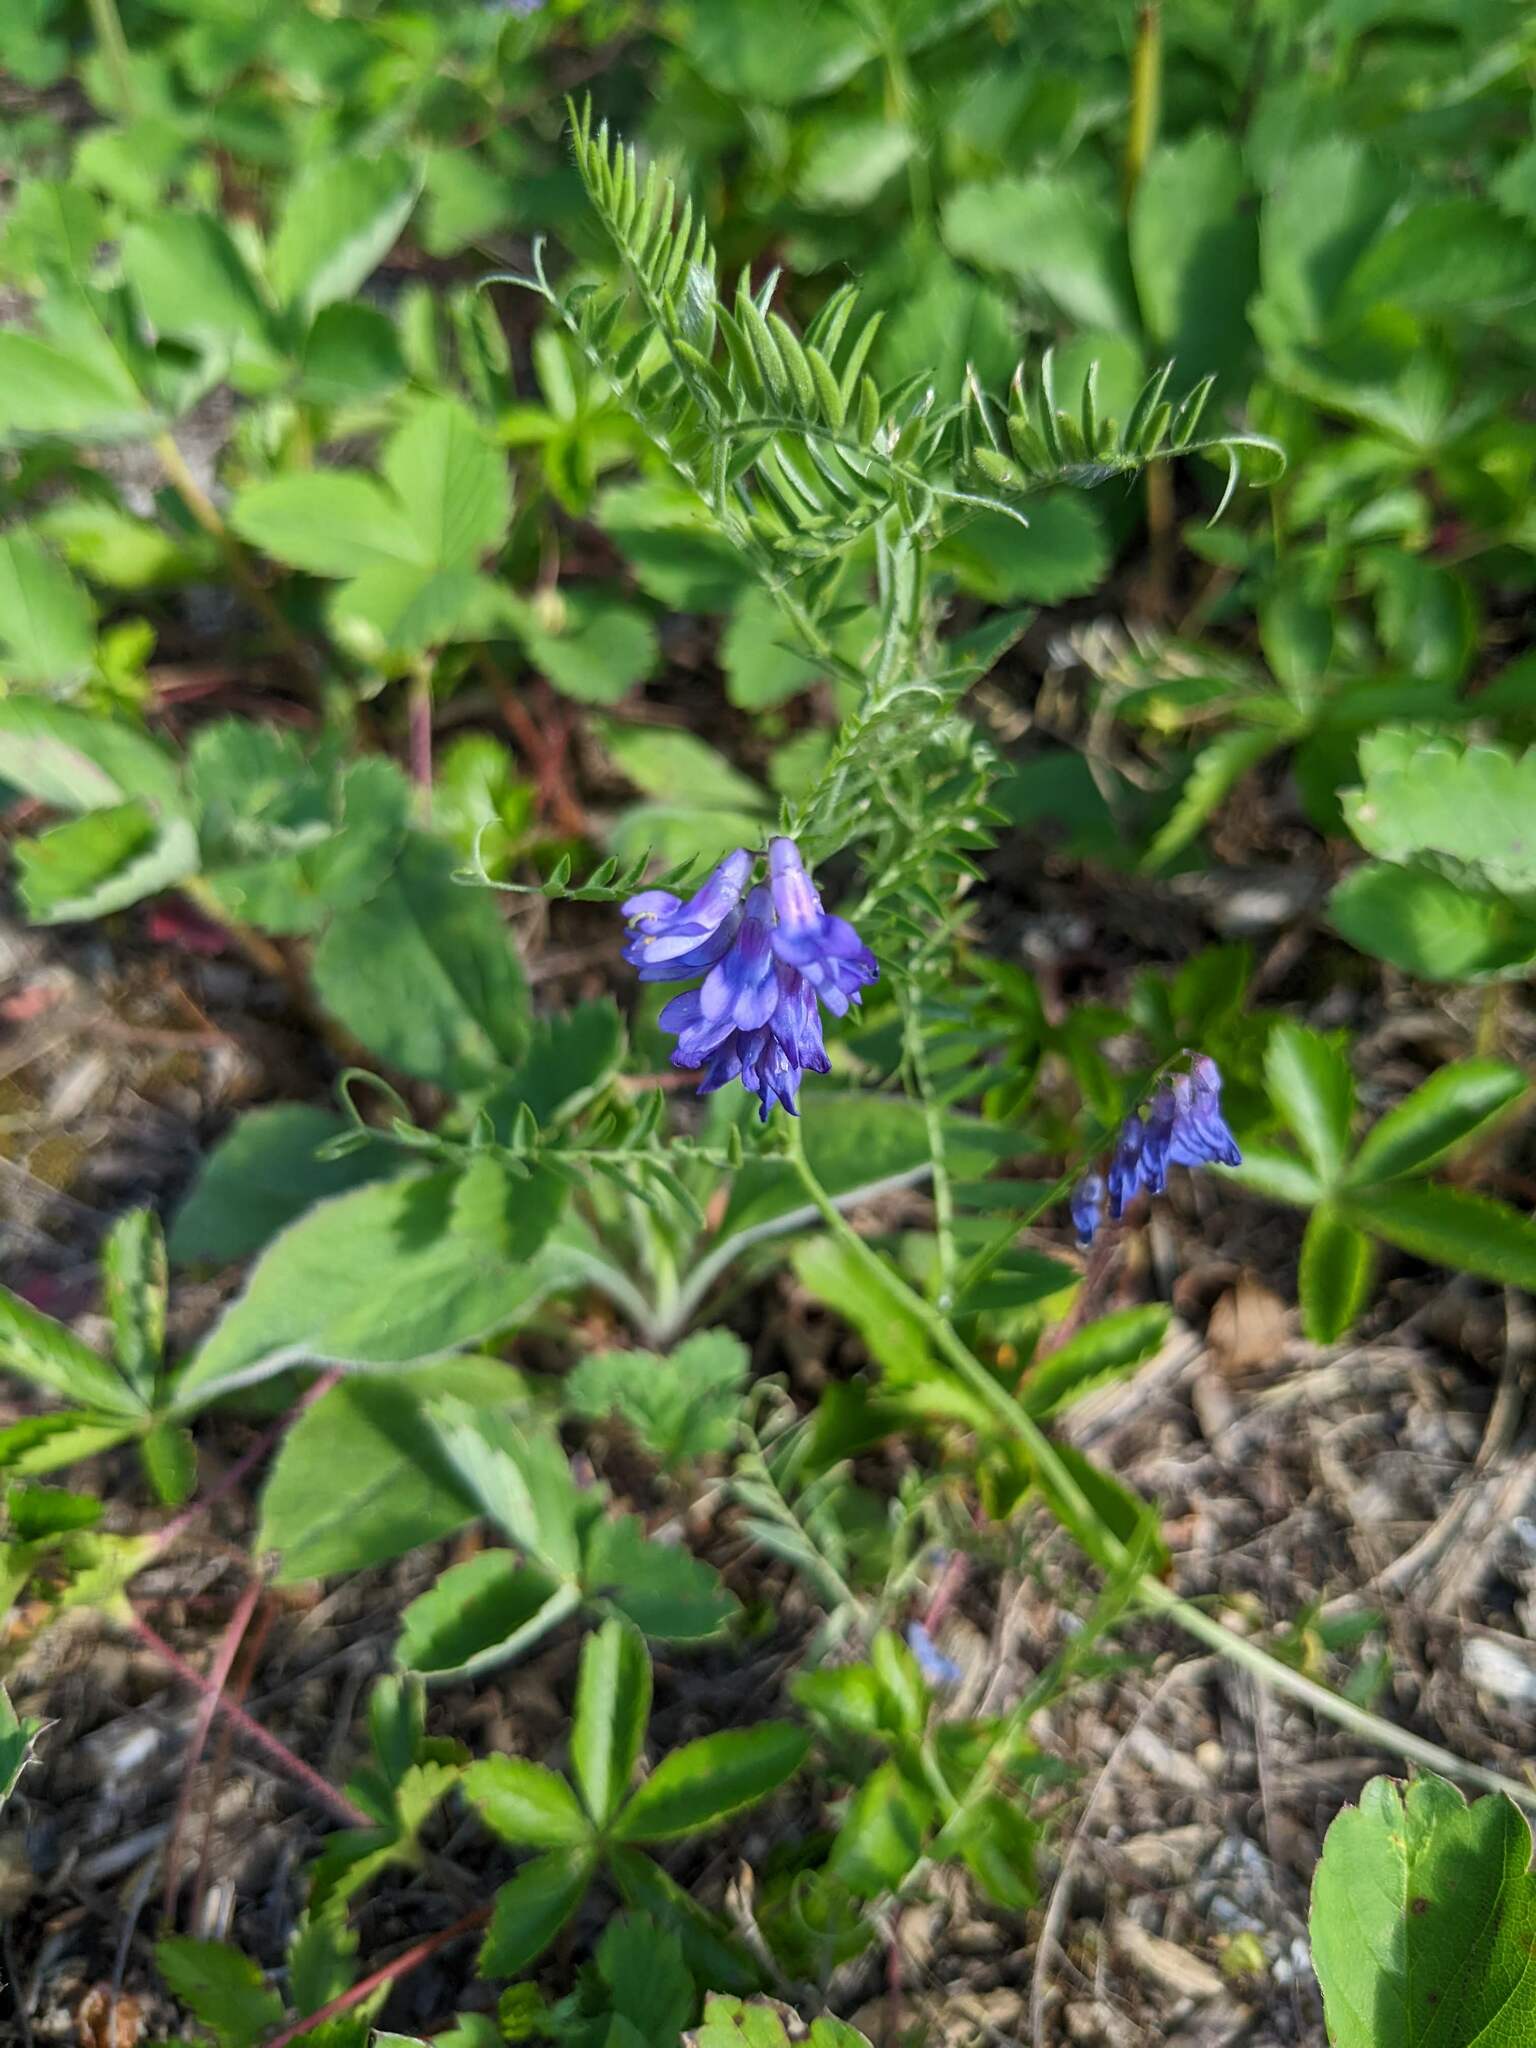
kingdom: Plantae
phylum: Tracheophyta
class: Magnoliopsida
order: Fabales
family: Fabaceae
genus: Vicia
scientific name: Vicia cracca
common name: Bird vetch
